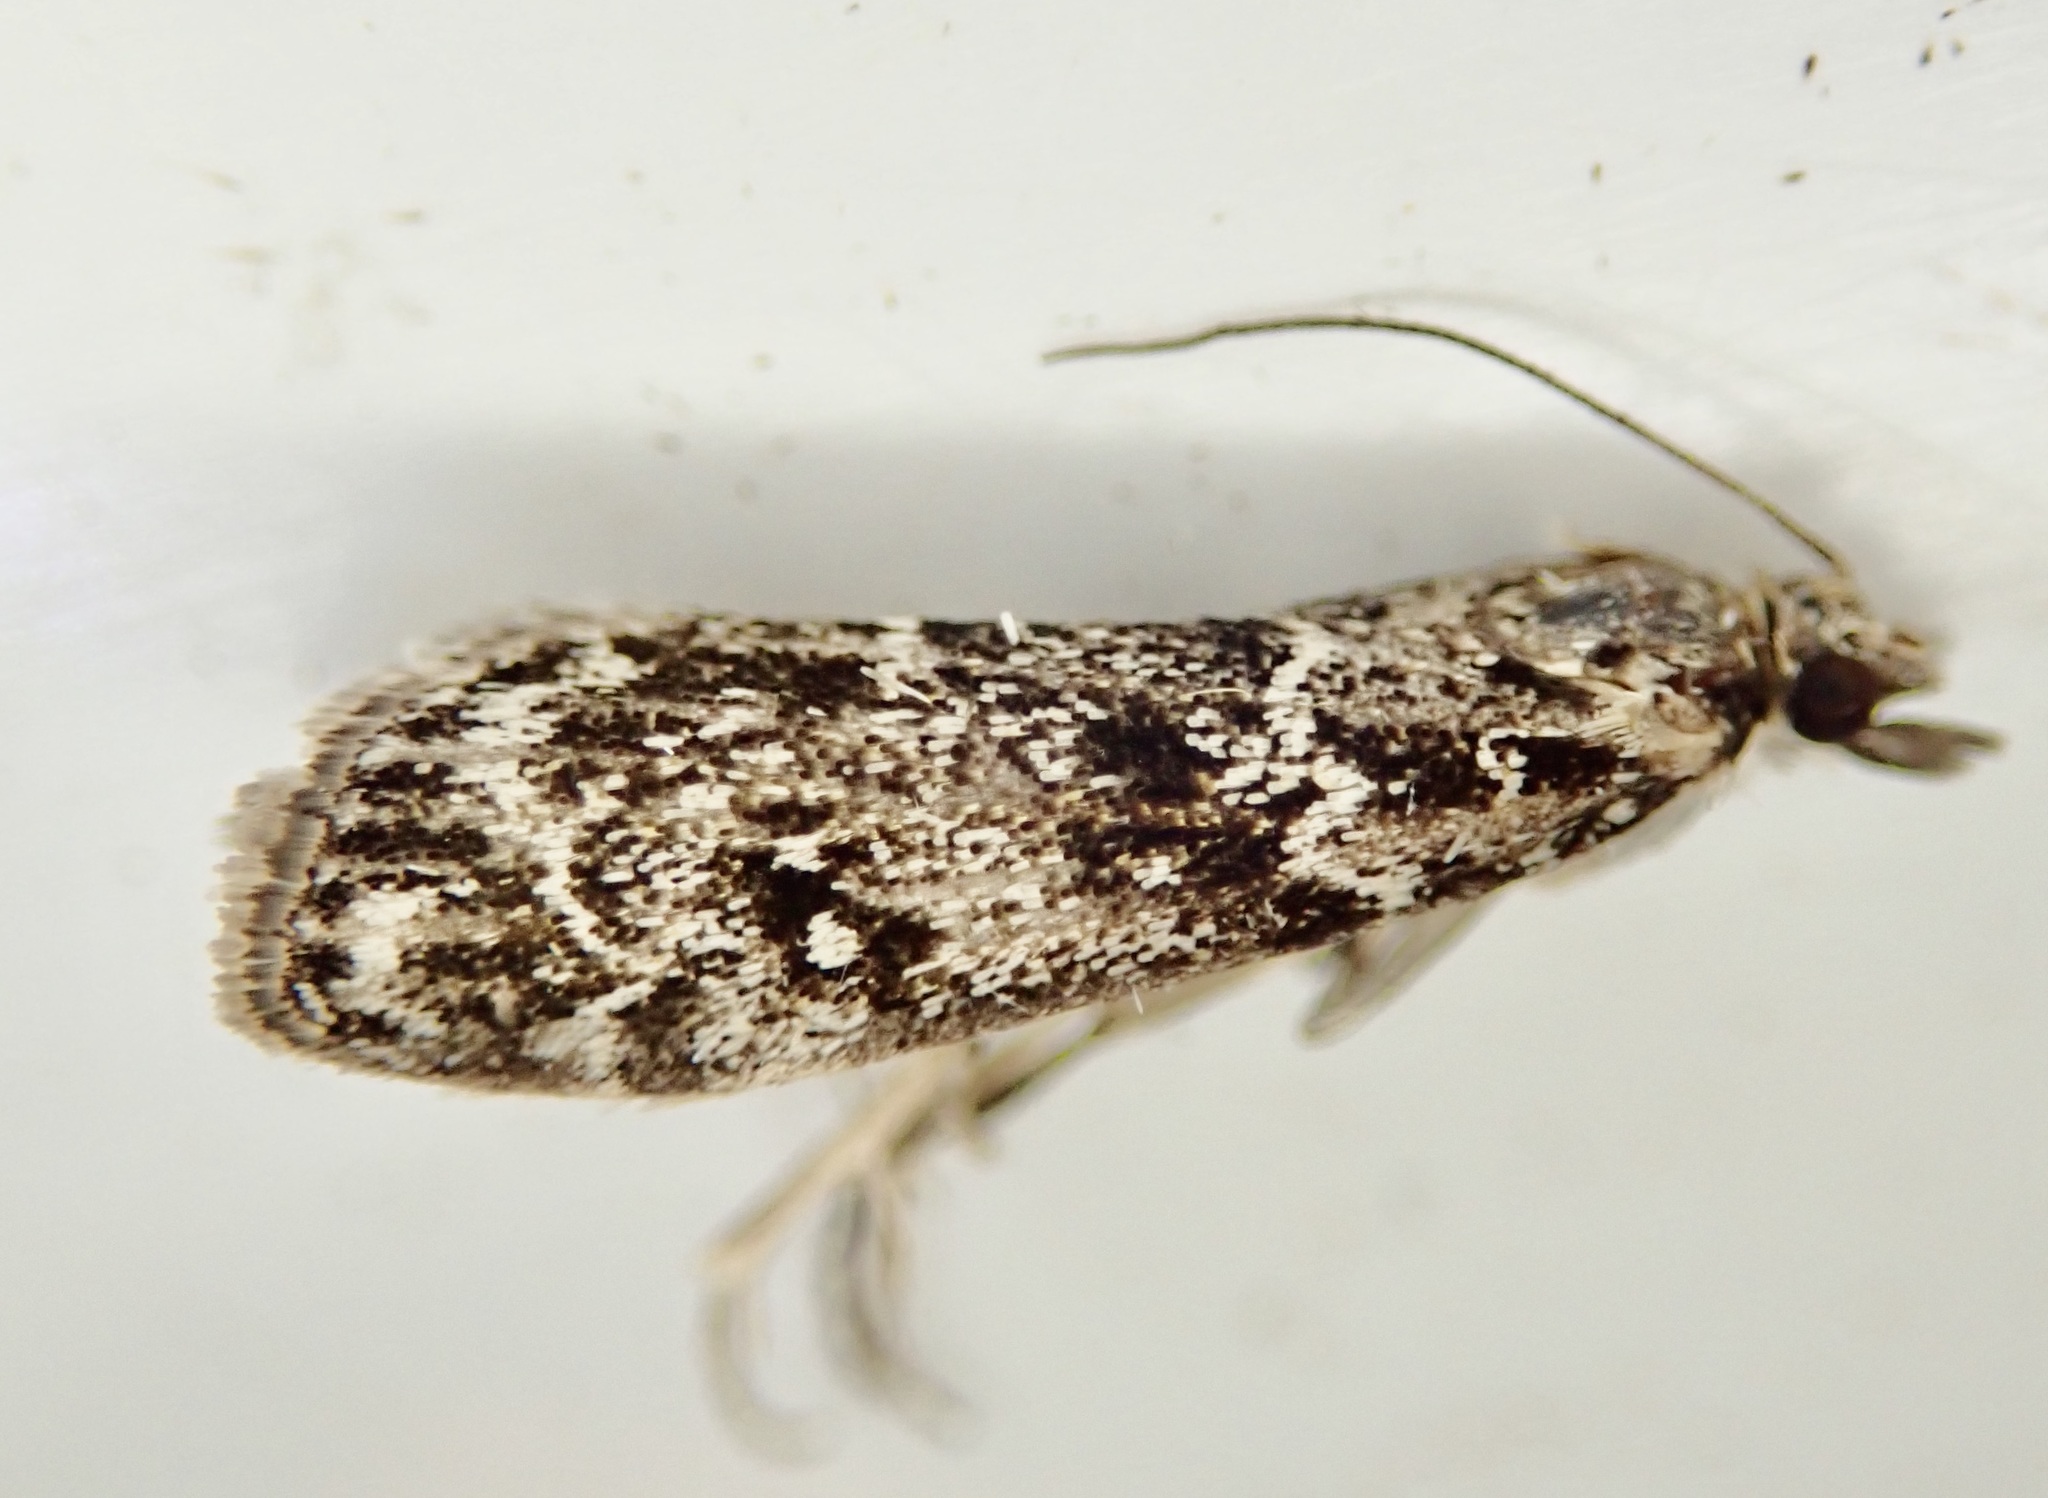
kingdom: Animalia
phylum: Arthropoda
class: Insecta
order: Lepidoptera
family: Crambidae
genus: Eudonia
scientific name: Eudonia philerga
